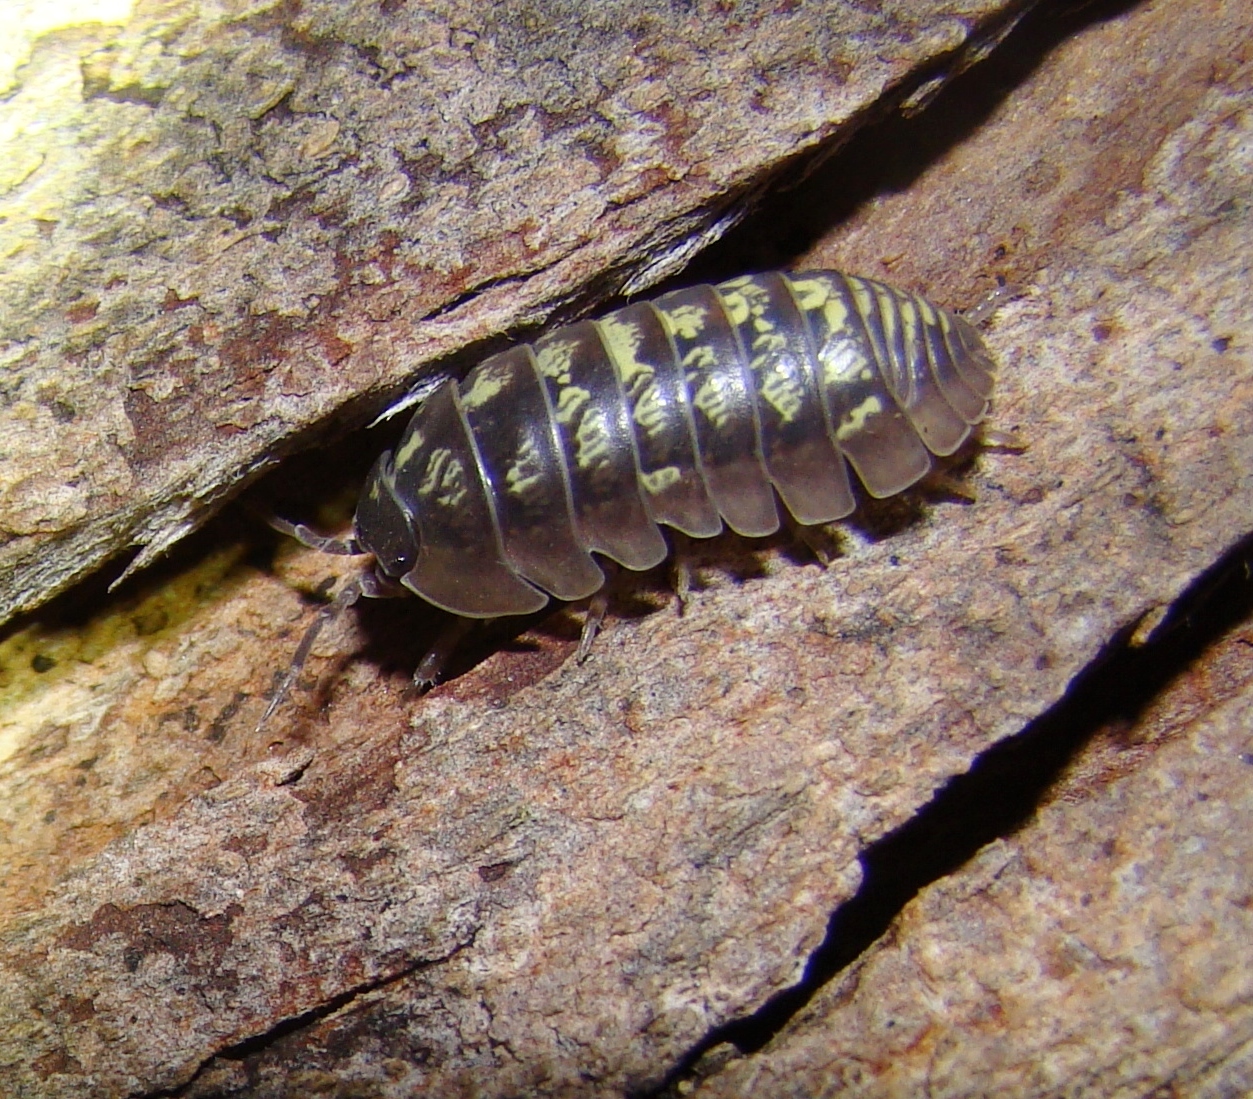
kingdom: Animalia
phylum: Arthropoda
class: Malacostraca
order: Isopoda
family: Armadillidiidae
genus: Armadillidium
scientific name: Armadillidium vulgare
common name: Common pill woodlouse
